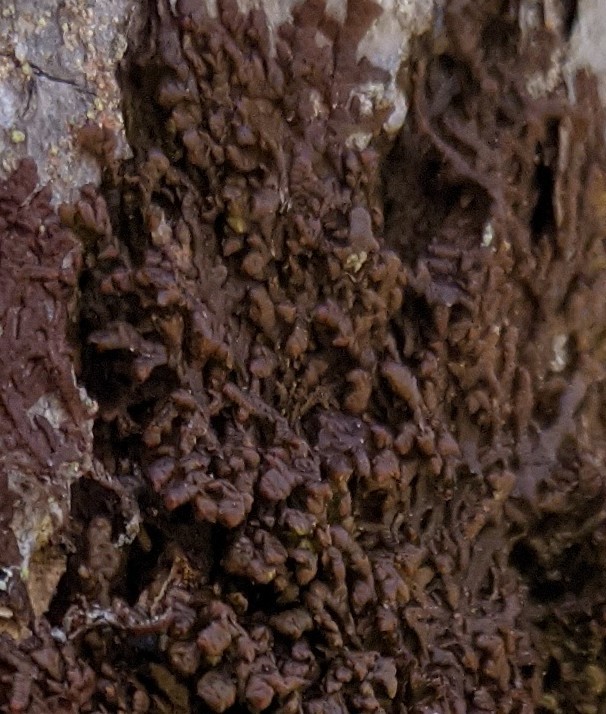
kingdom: Plantae
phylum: Marchantiophyta
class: Jungermanniopsida
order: Porellales
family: Frullaniaceae
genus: Frullania
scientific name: Frullania asagrayana
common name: Asa gray s scalewort
